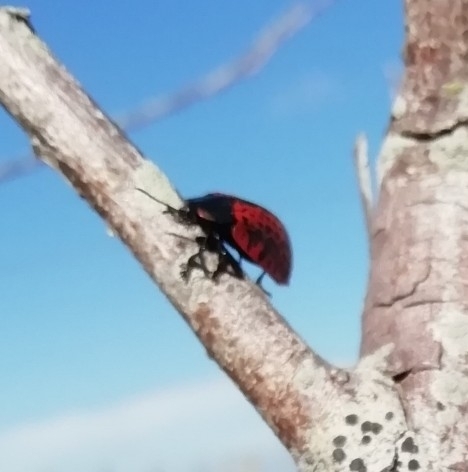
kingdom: Animalia
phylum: Arthropoda
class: Insecta
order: Coleoptera
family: Chrysomelidae
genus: Stolas
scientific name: Stolas lacordairei
